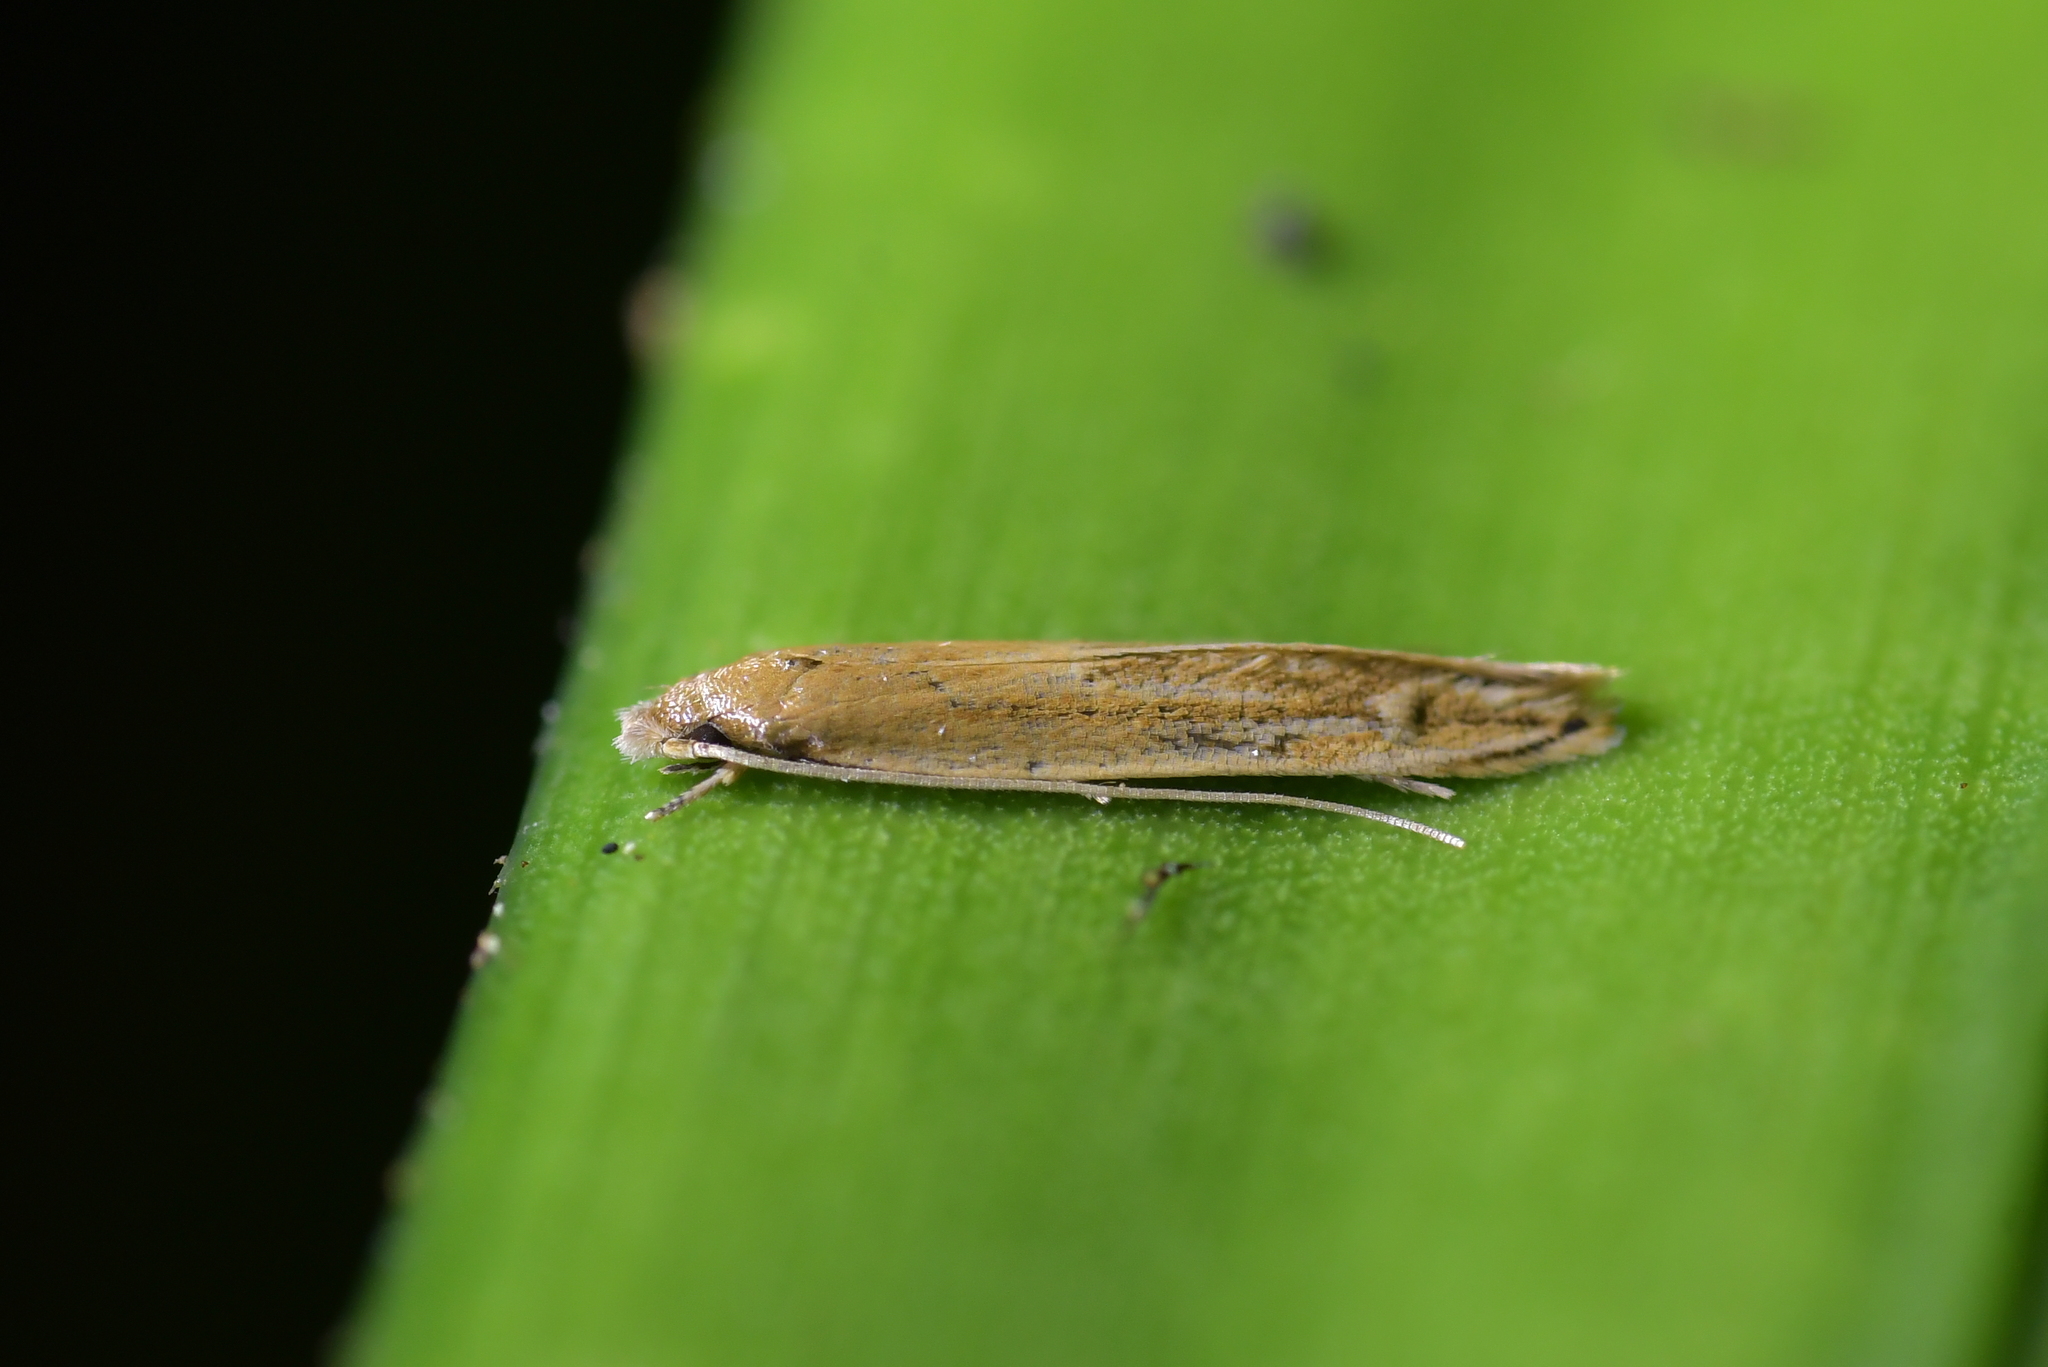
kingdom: Animalia
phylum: Arthropoda
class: Insecta
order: Lepidoptera
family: Tineidae
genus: Amphixystis
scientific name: Amphixystis hapsimacha
